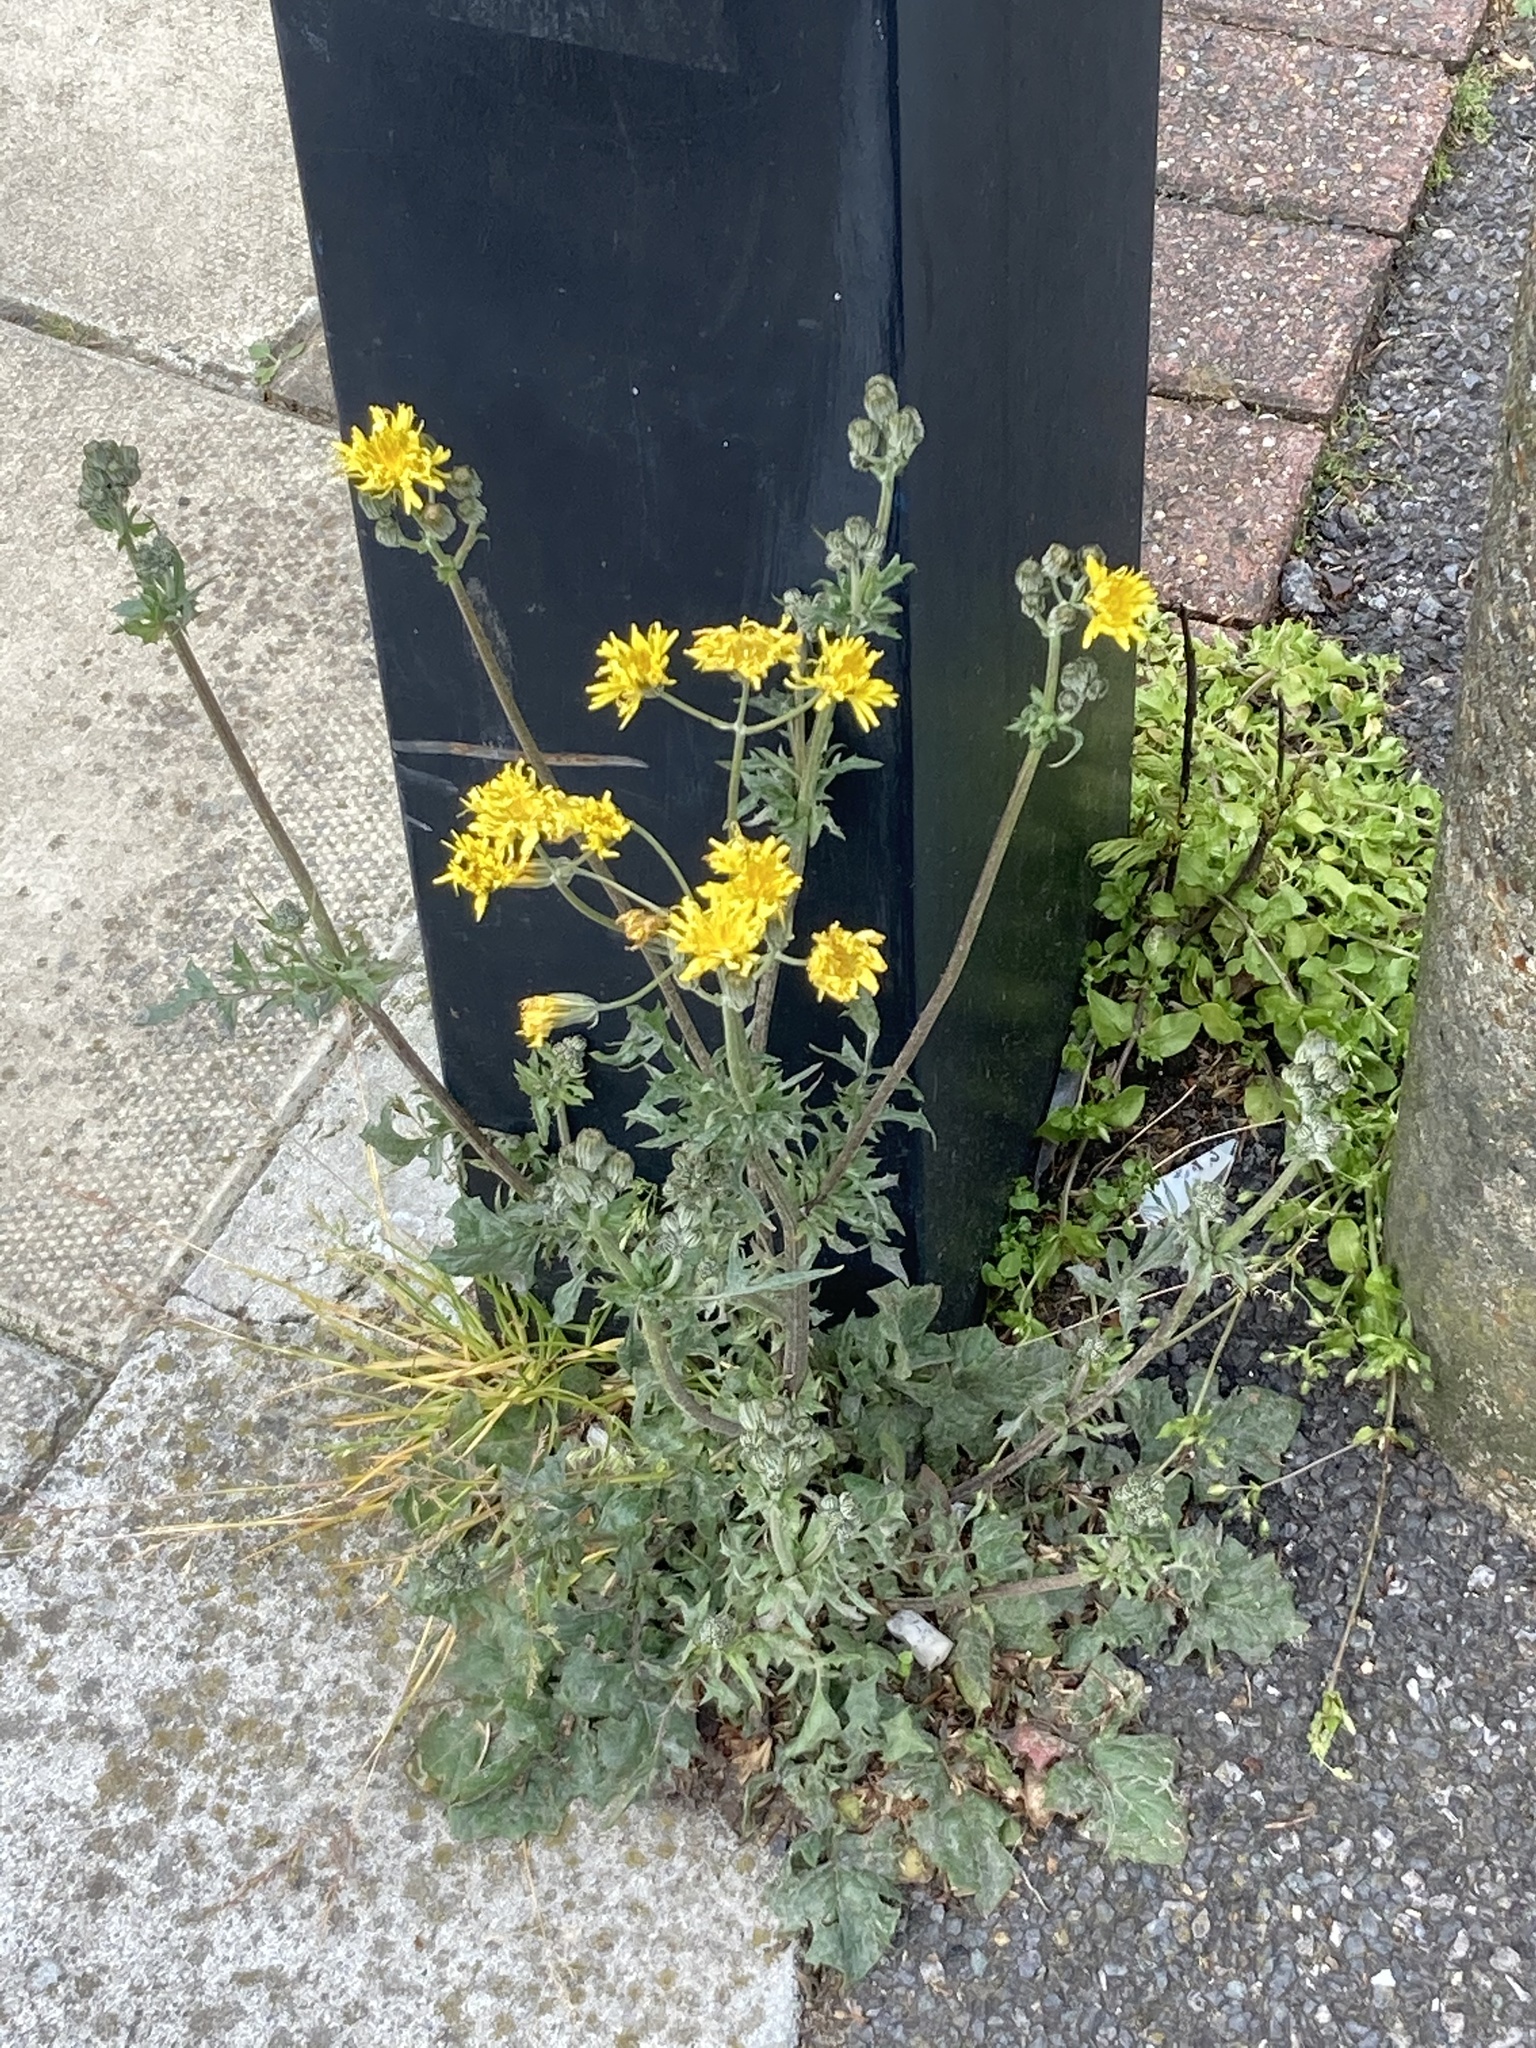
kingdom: Plantae
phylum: Tracheophyta
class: Magnoliopsida
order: Asterales
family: Asteraceae
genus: Crepis
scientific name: Crepis vesicaria
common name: Beaked hawksbeard
